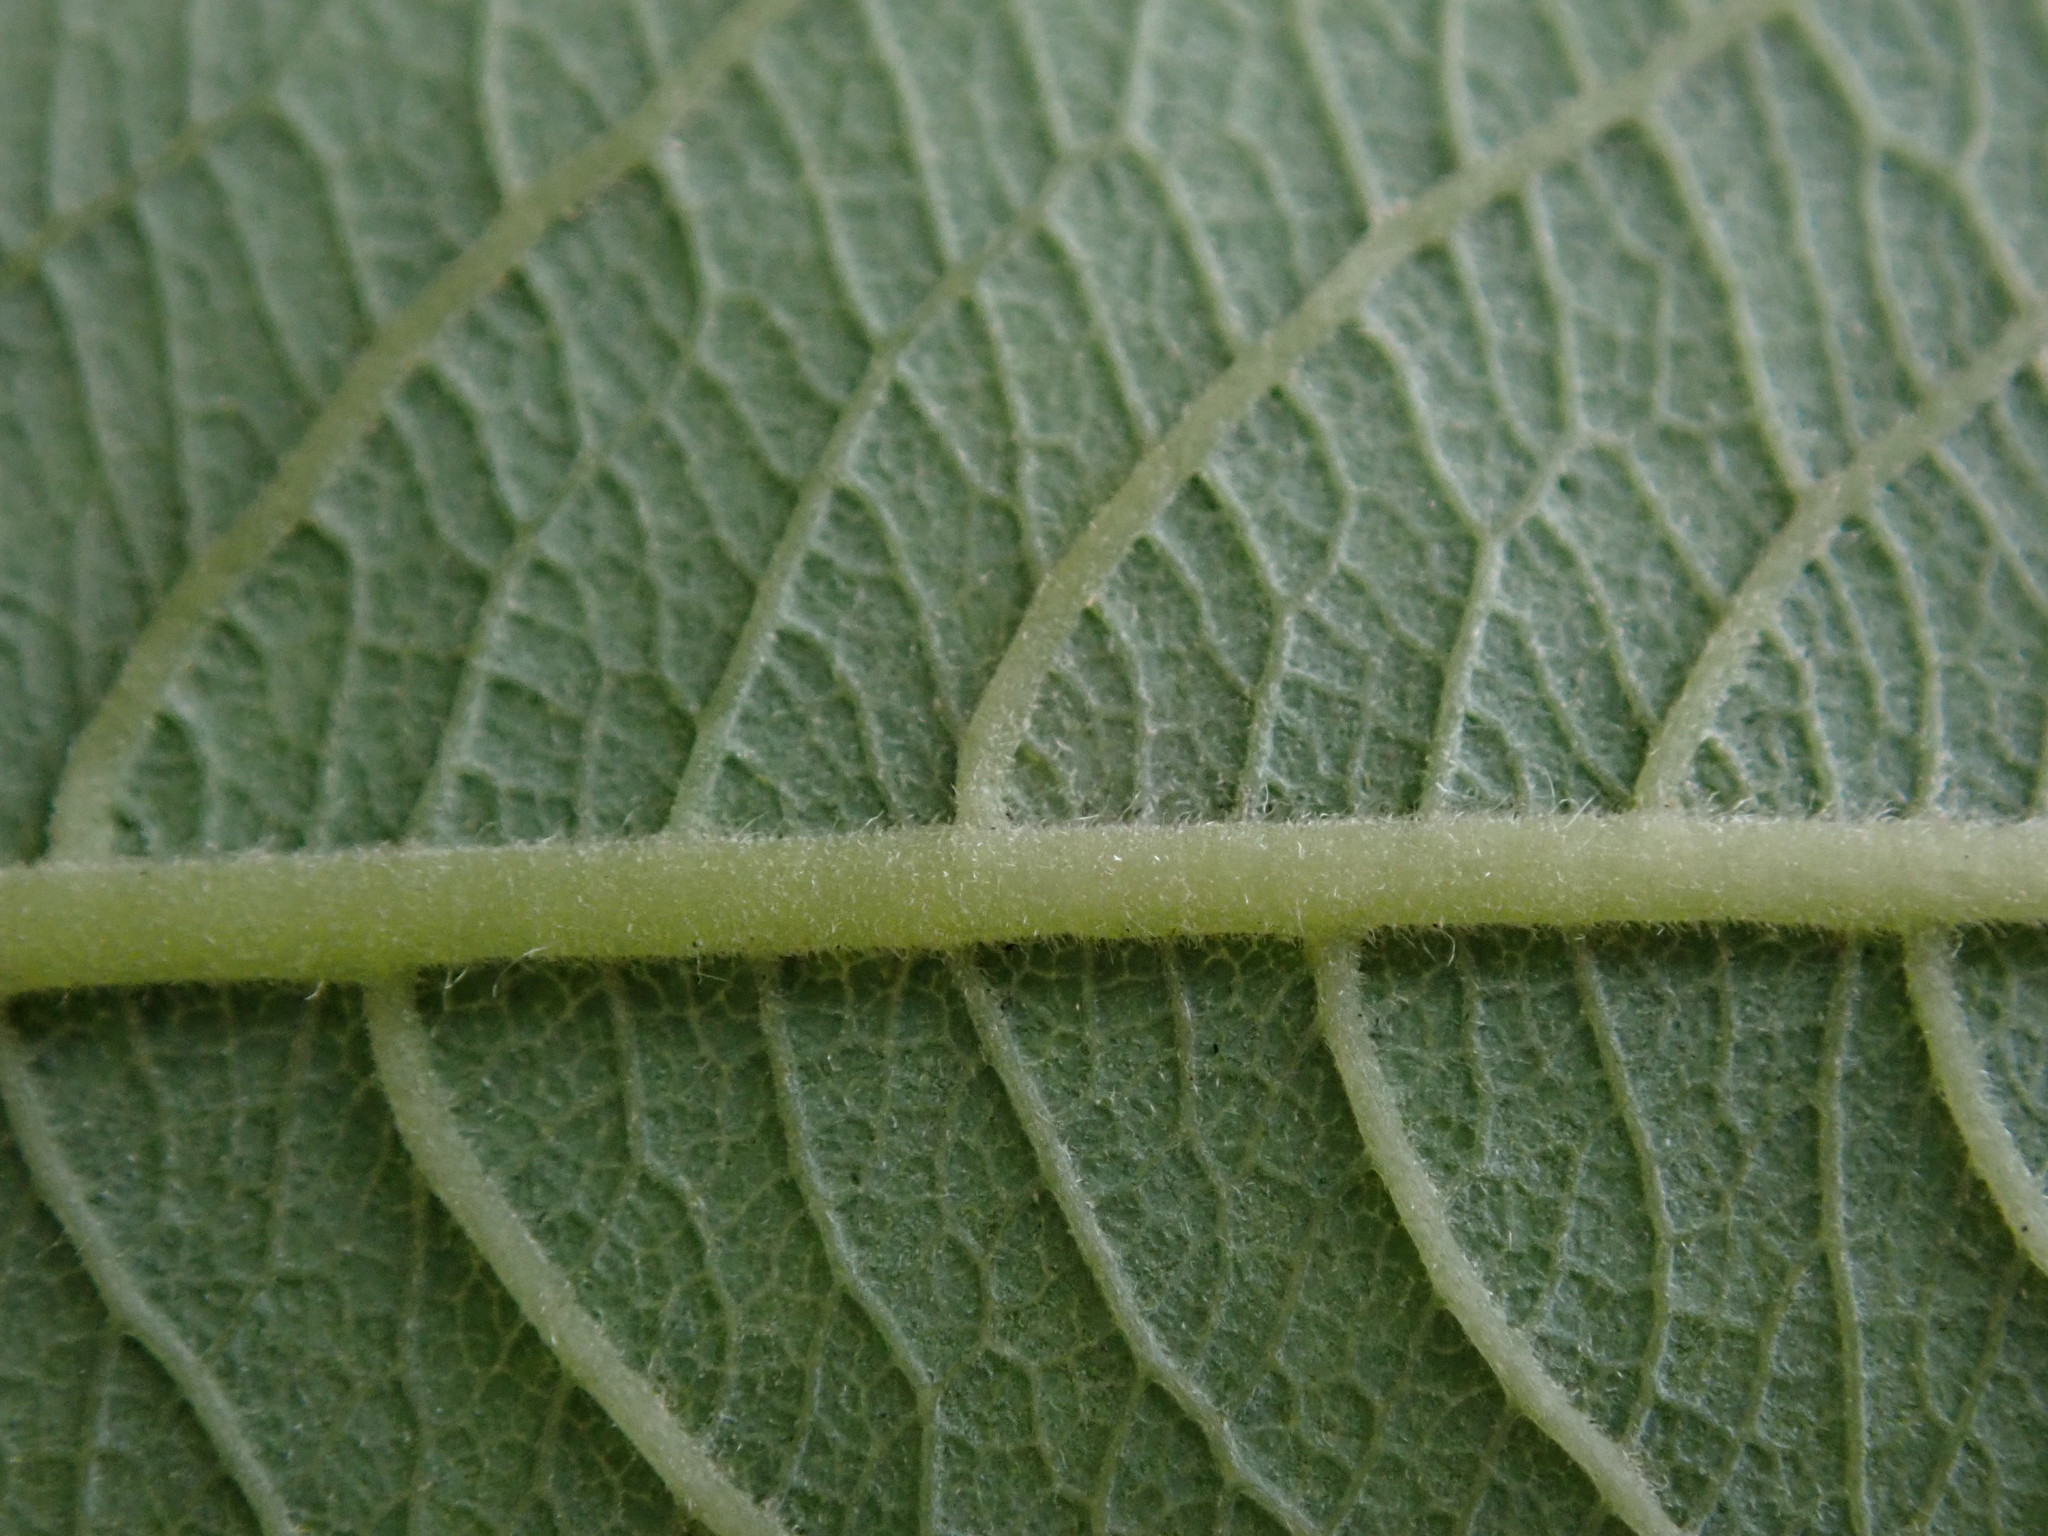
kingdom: Plantae
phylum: Tracheophyta
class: Magnoliopsida
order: Malpighiales
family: Salicaceae
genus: Salix
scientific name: Salix cinerea
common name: Common sallow
